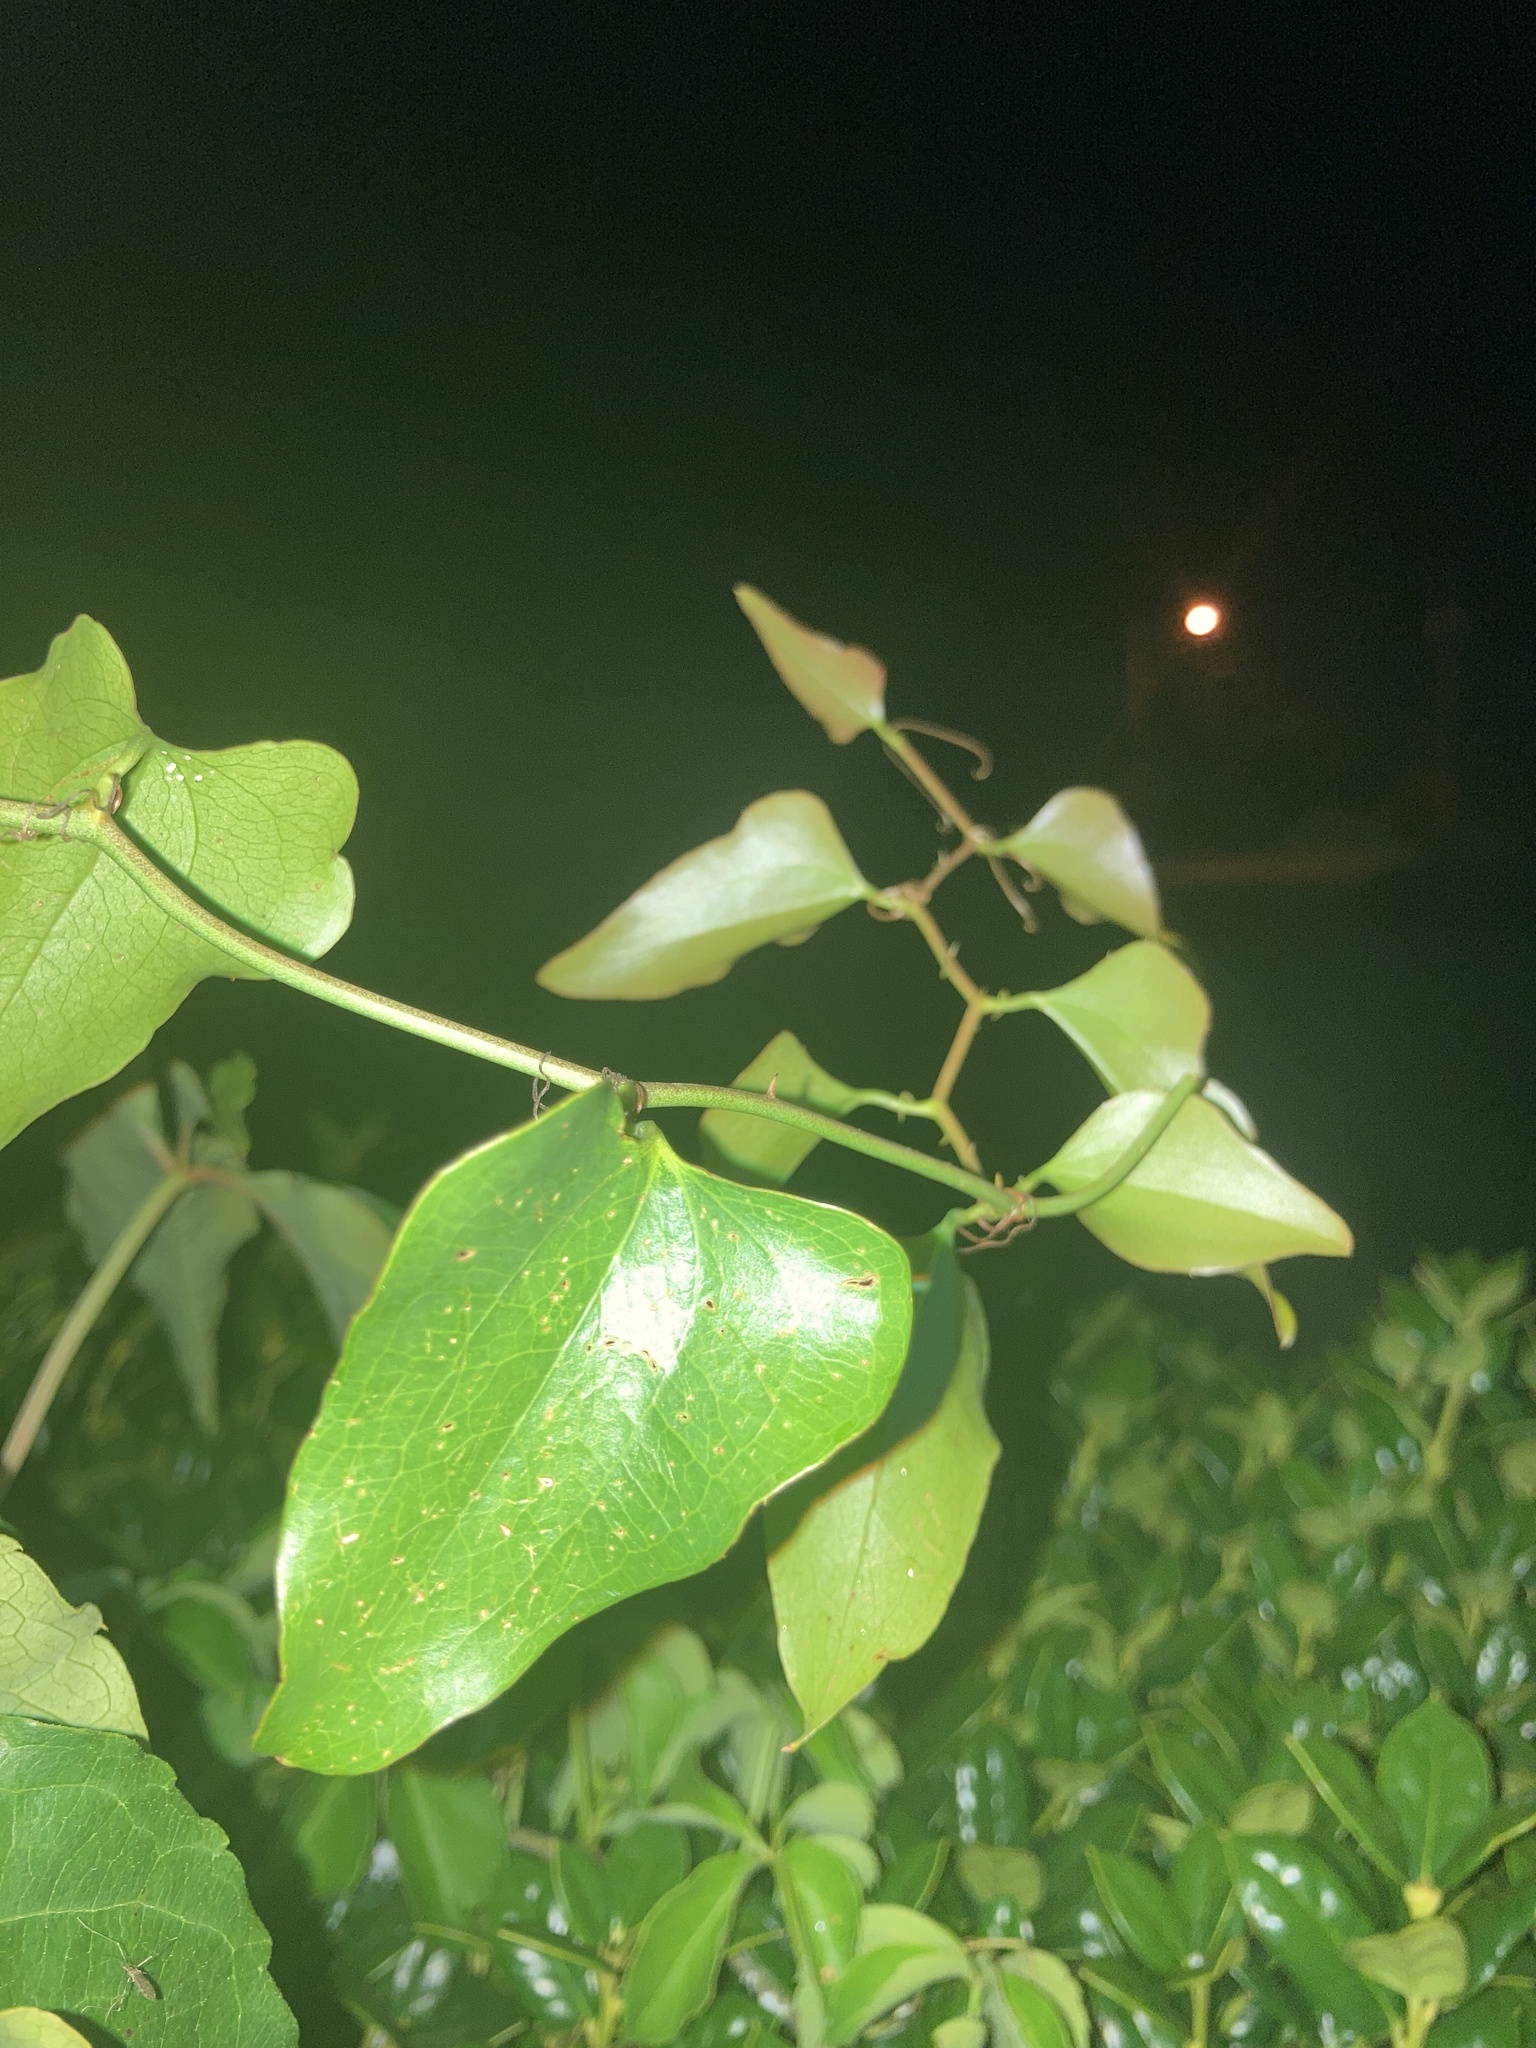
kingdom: Plantae
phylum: Tracheophyta
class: Liliopsida
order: Liliales
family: Smilacaceae
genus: Smilax
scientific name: Smilax bona-nox
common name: Catbrier
